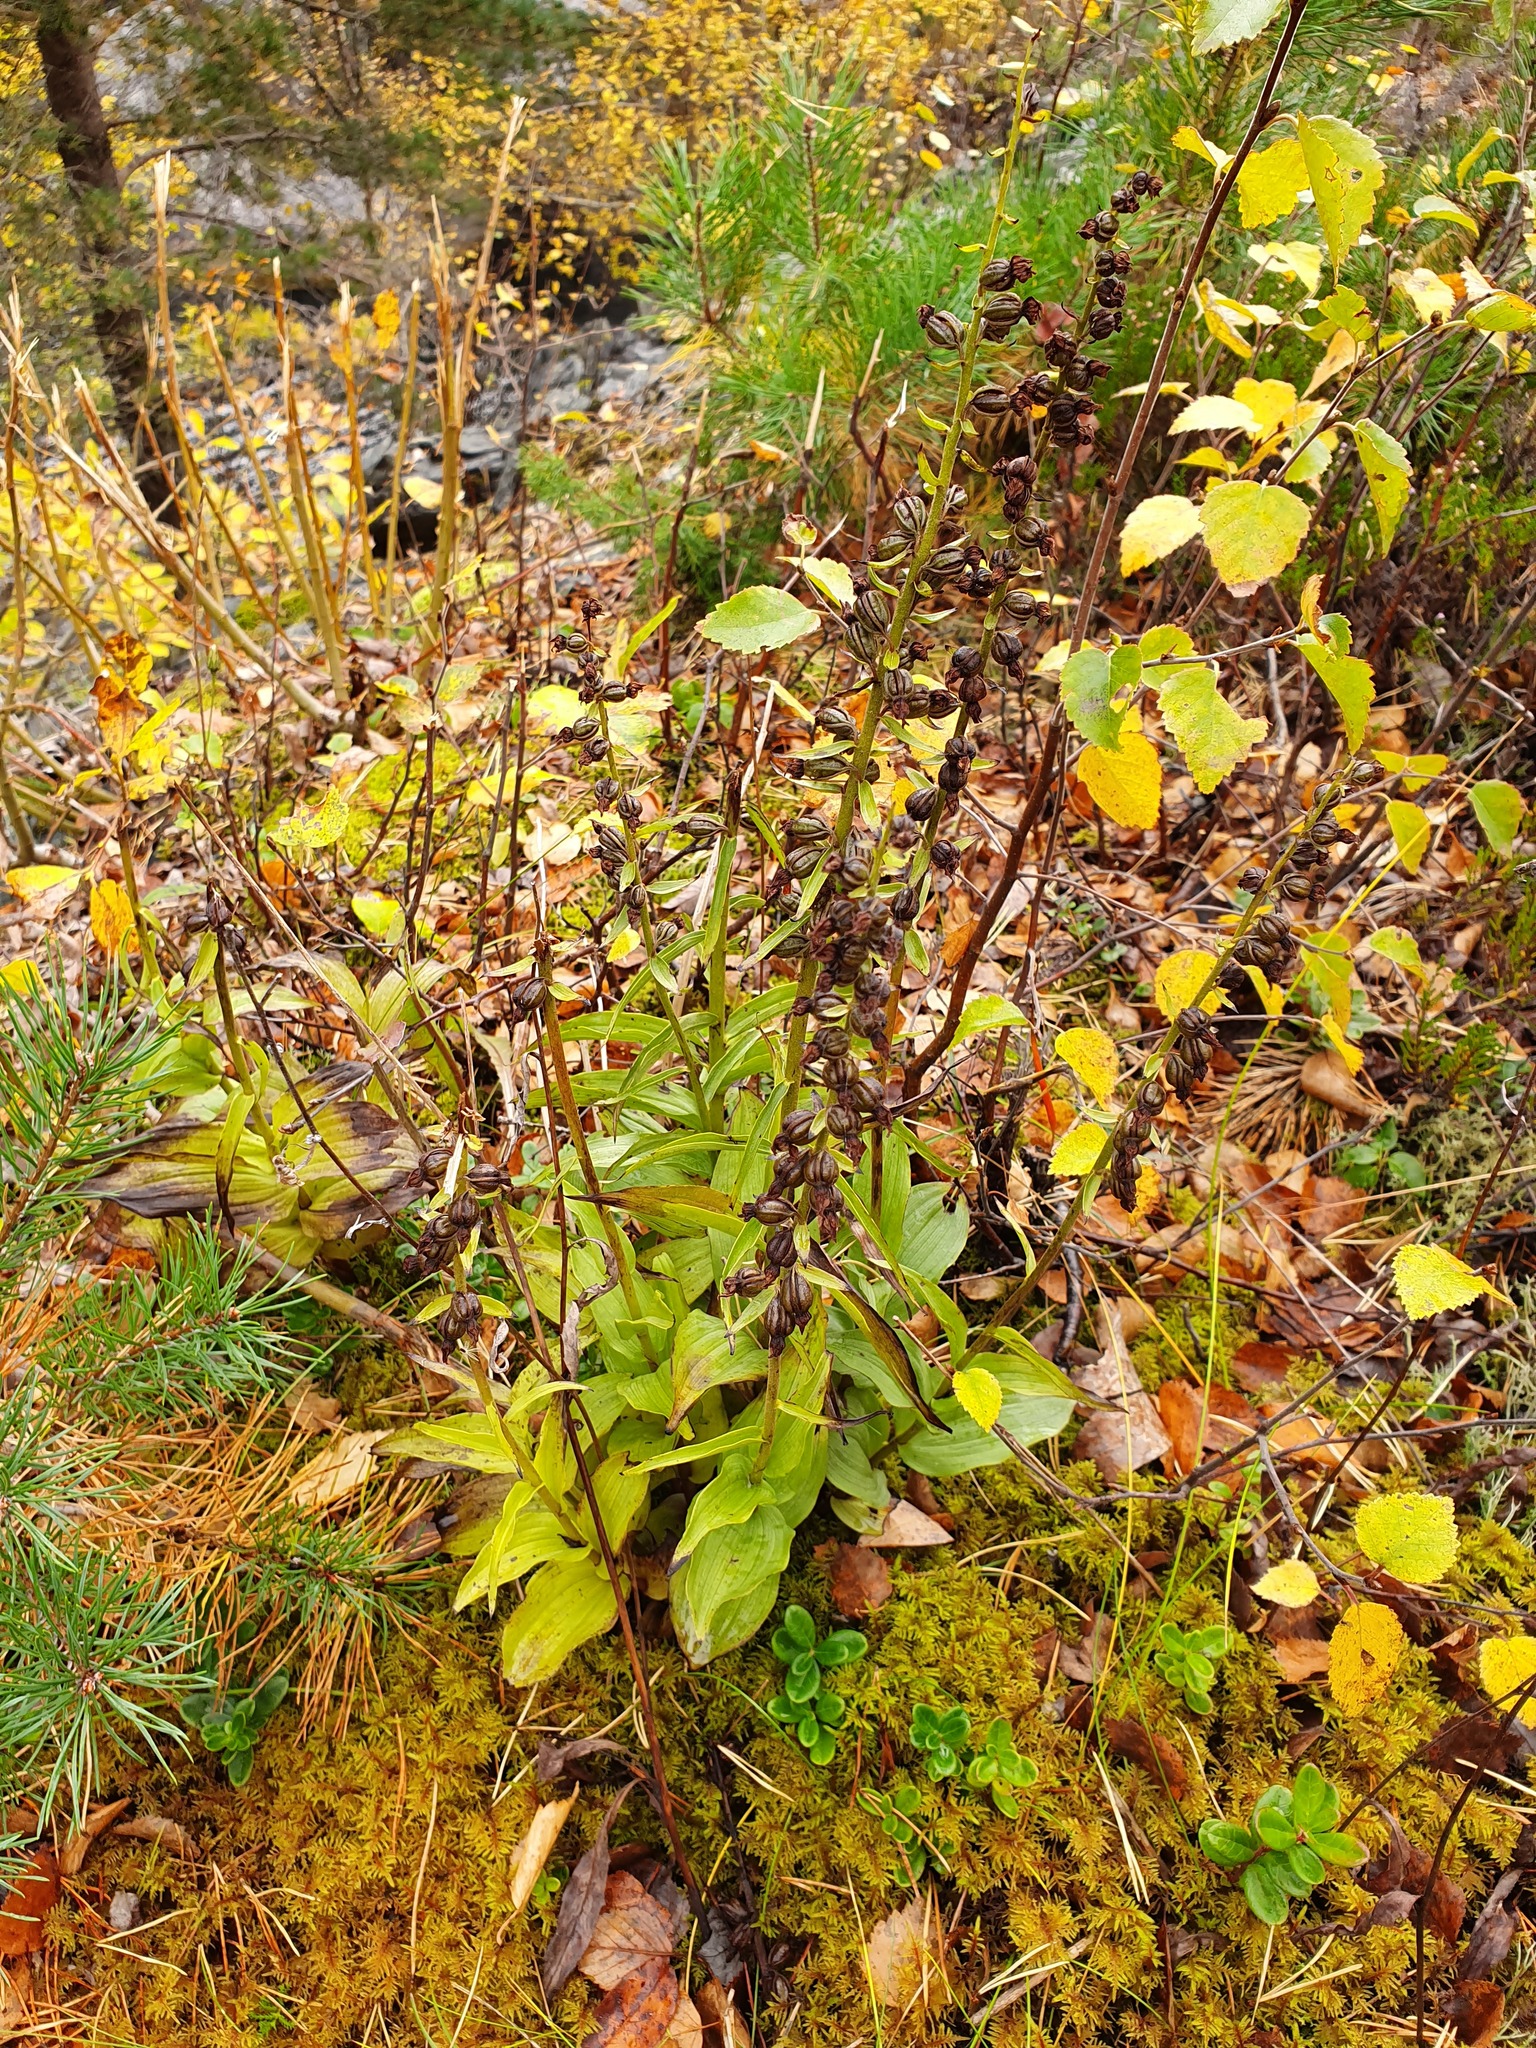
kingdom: Plantae
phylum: Tracheophyta
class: Liliopsida
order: Asparagales
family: Orchidaceae
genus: Epipactis
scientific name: Epipactis helleborine
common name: Broad-leaved helleborine
